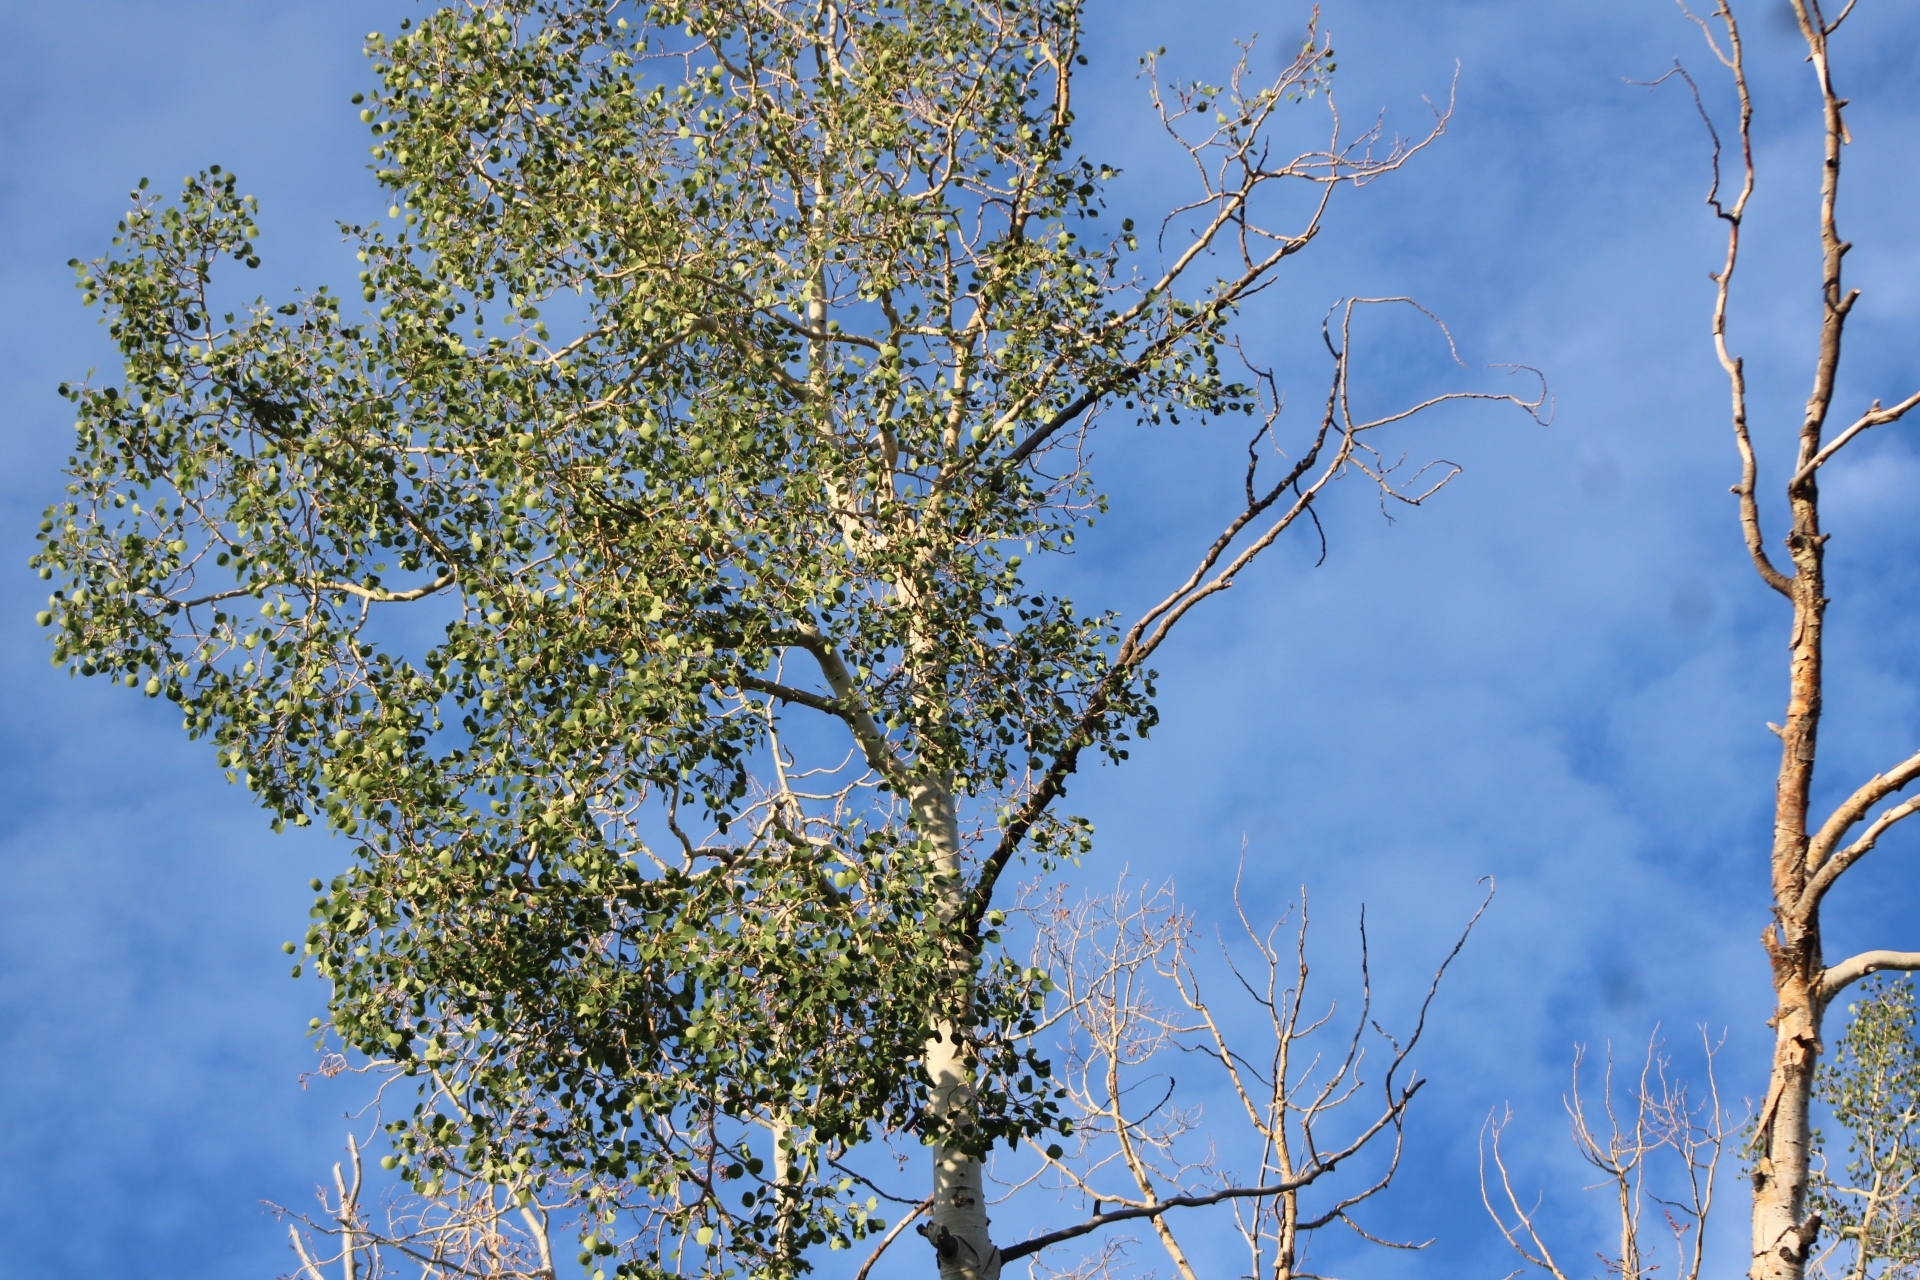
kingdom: Plantae
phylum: Tracheophyta
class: Magnoliopsida
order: Malpighiales
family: Salicaceae
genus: Populus
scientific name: Populus tremuloides
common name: Quaking aspen
